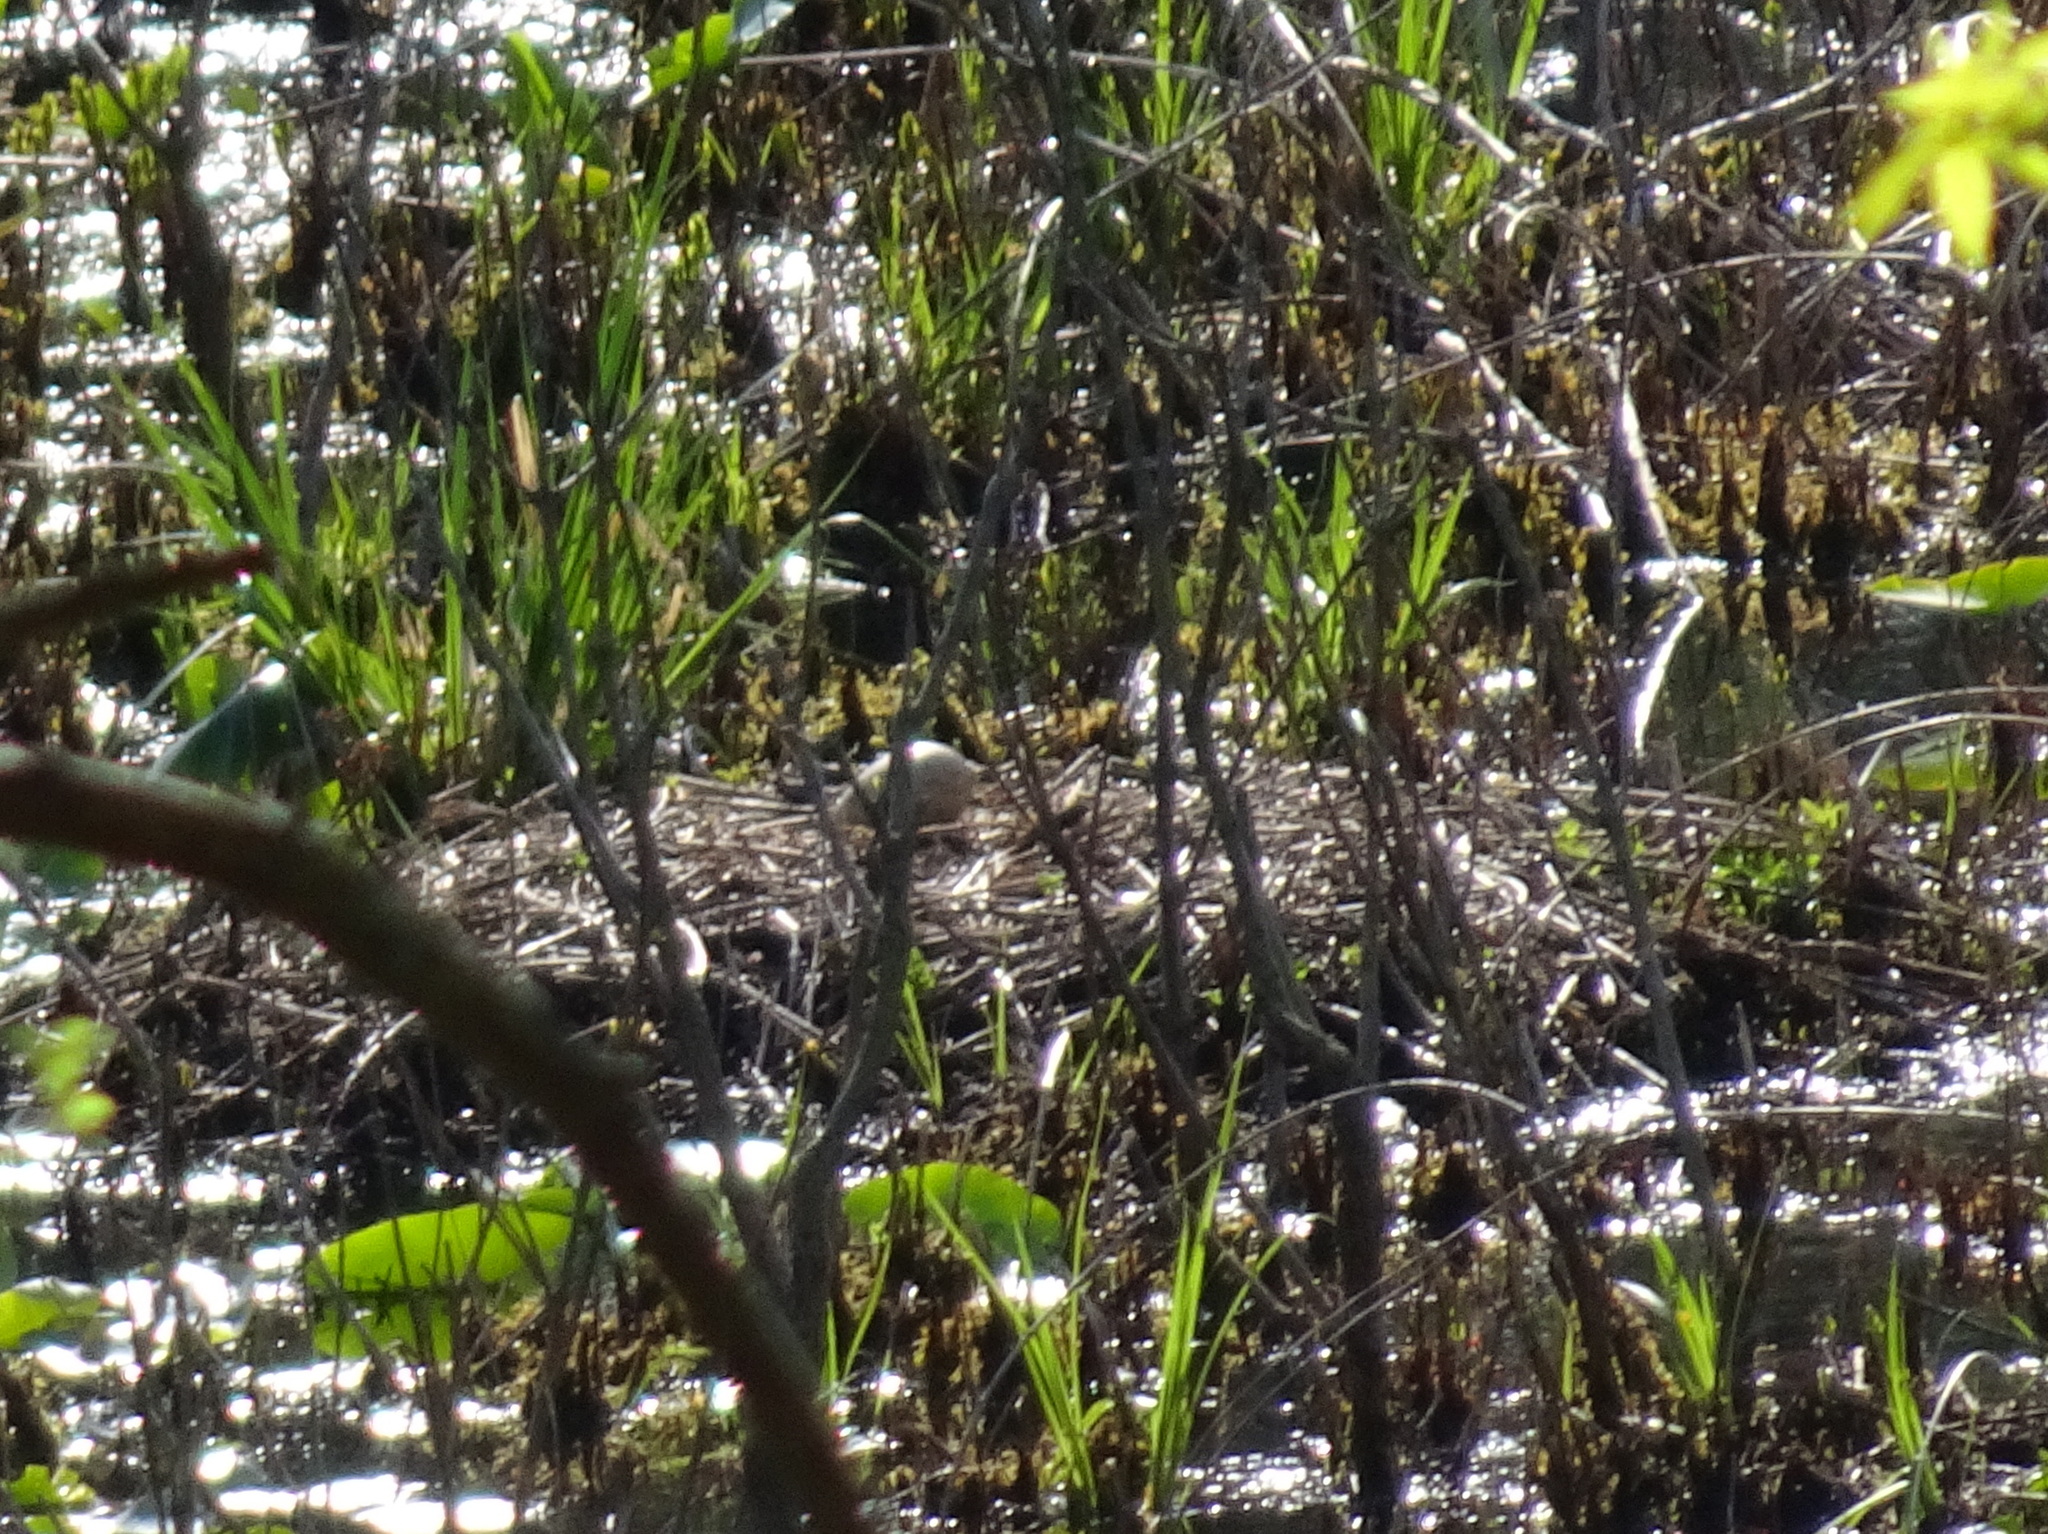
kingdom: Animalia
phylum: Chordata
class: Aves
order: Gruiformes
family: Gruidae
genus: Grus
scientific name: Grus canadensis
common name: Sandhill crane
